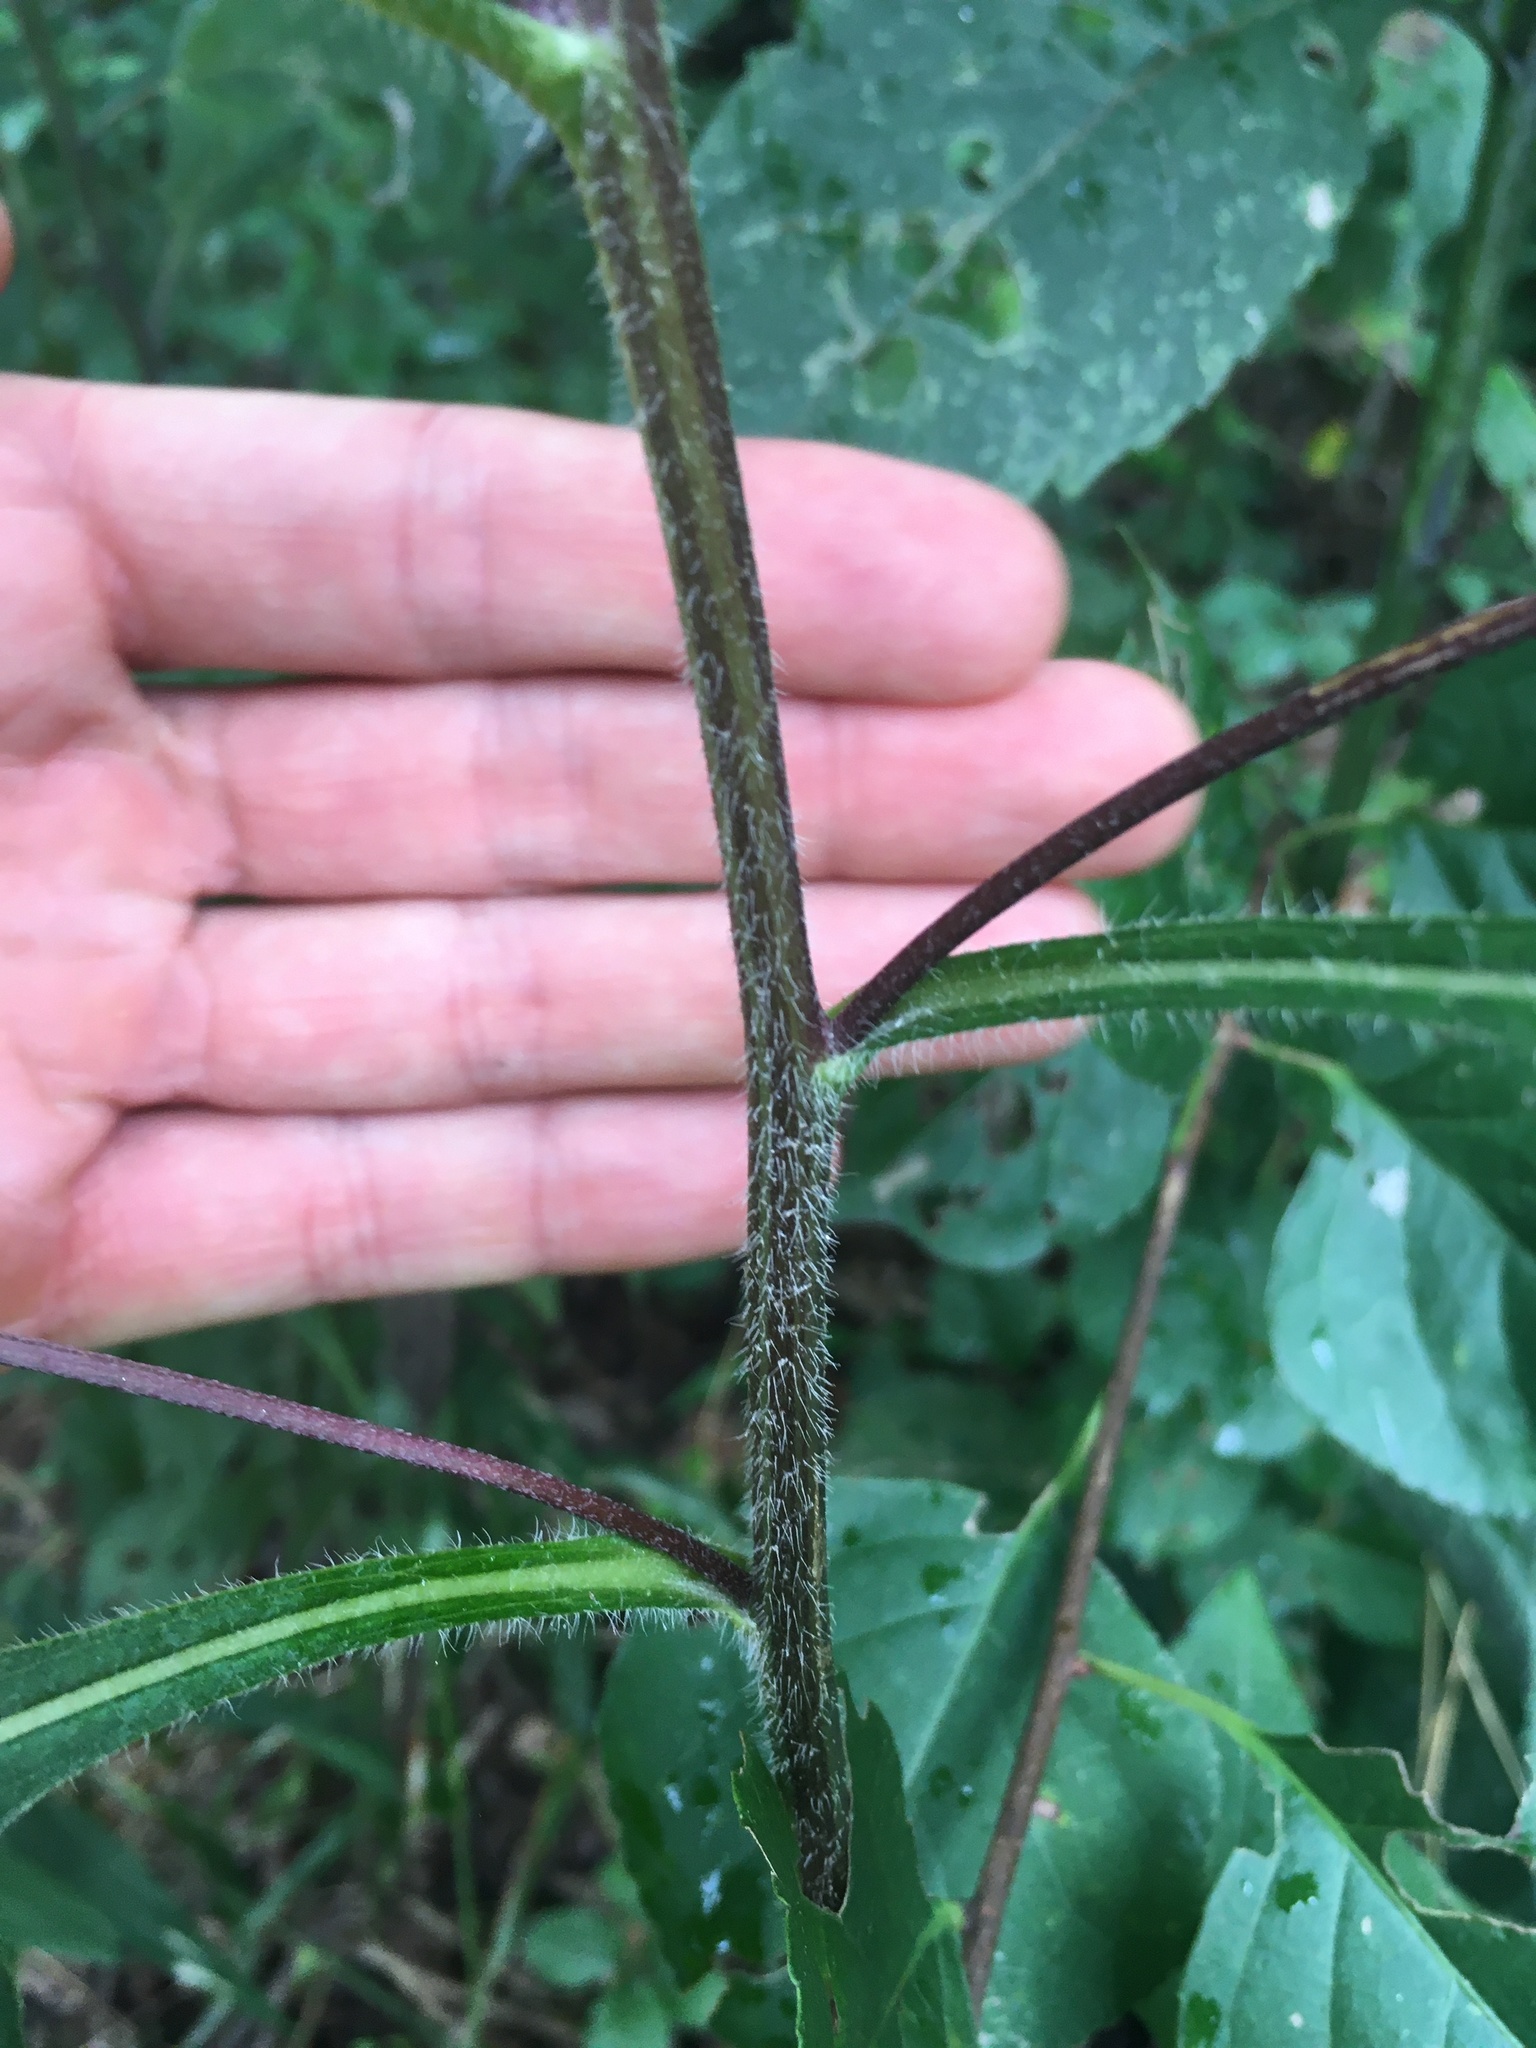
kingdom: Plantae
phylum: Tracheophyta
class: Magnoliopsida
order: Asterales
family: Asteraceae
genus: Rudbeckia
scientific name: Rudbeckia triloba
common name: Thin-leaved coneflower
